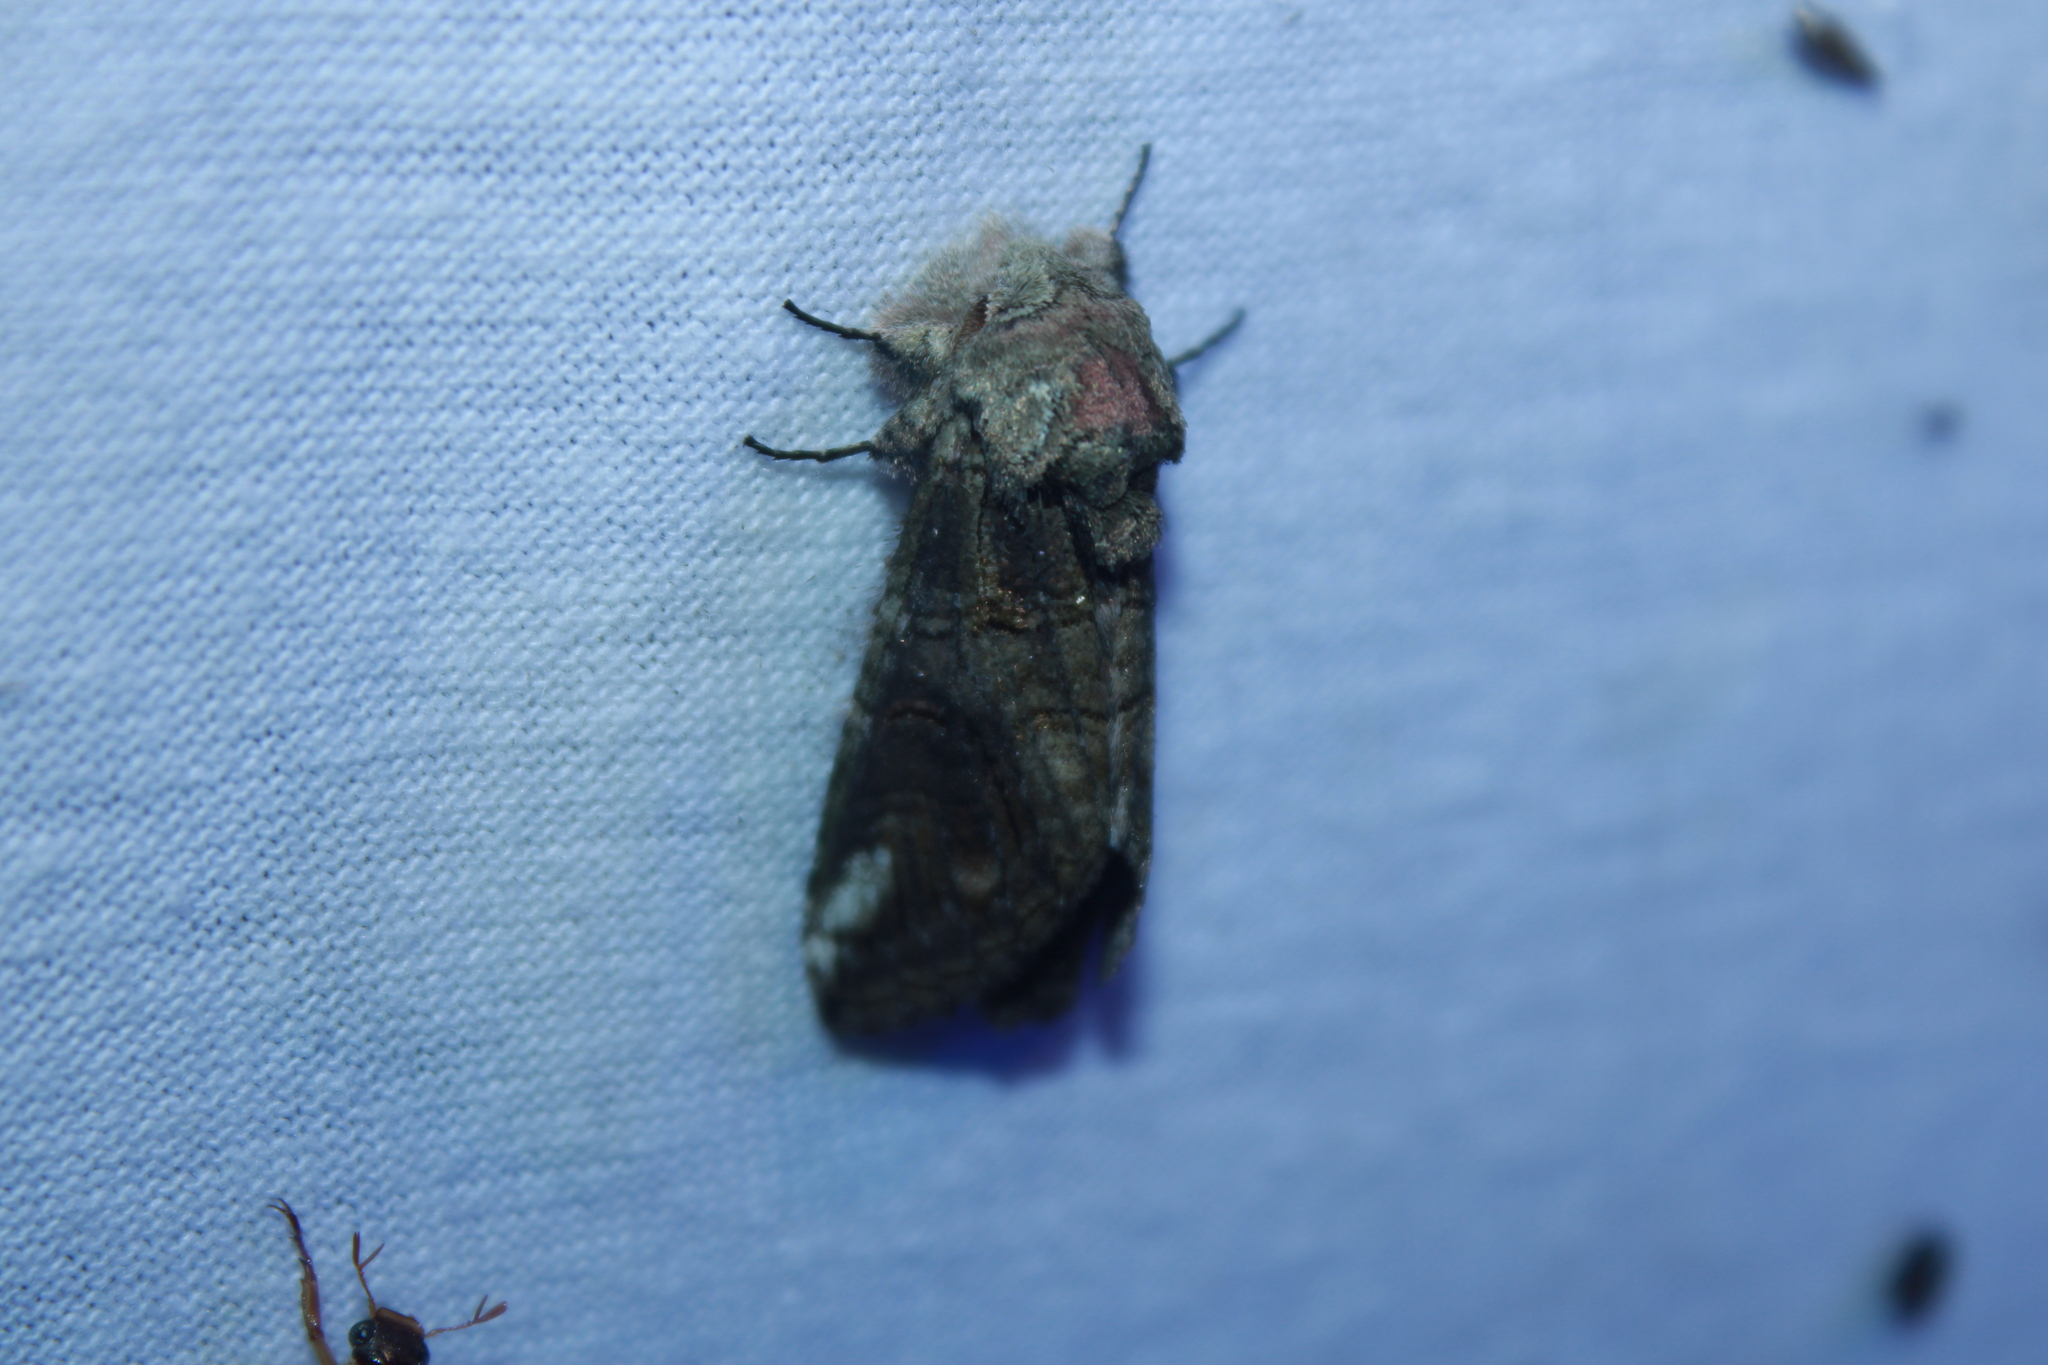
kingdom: Animalia
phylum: Arthropoda
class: Insecta
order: Lepidoptera
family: Notodontidae
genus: Heterocampa
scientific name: Heterocampa obliqua
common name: Oblique heterocampa
